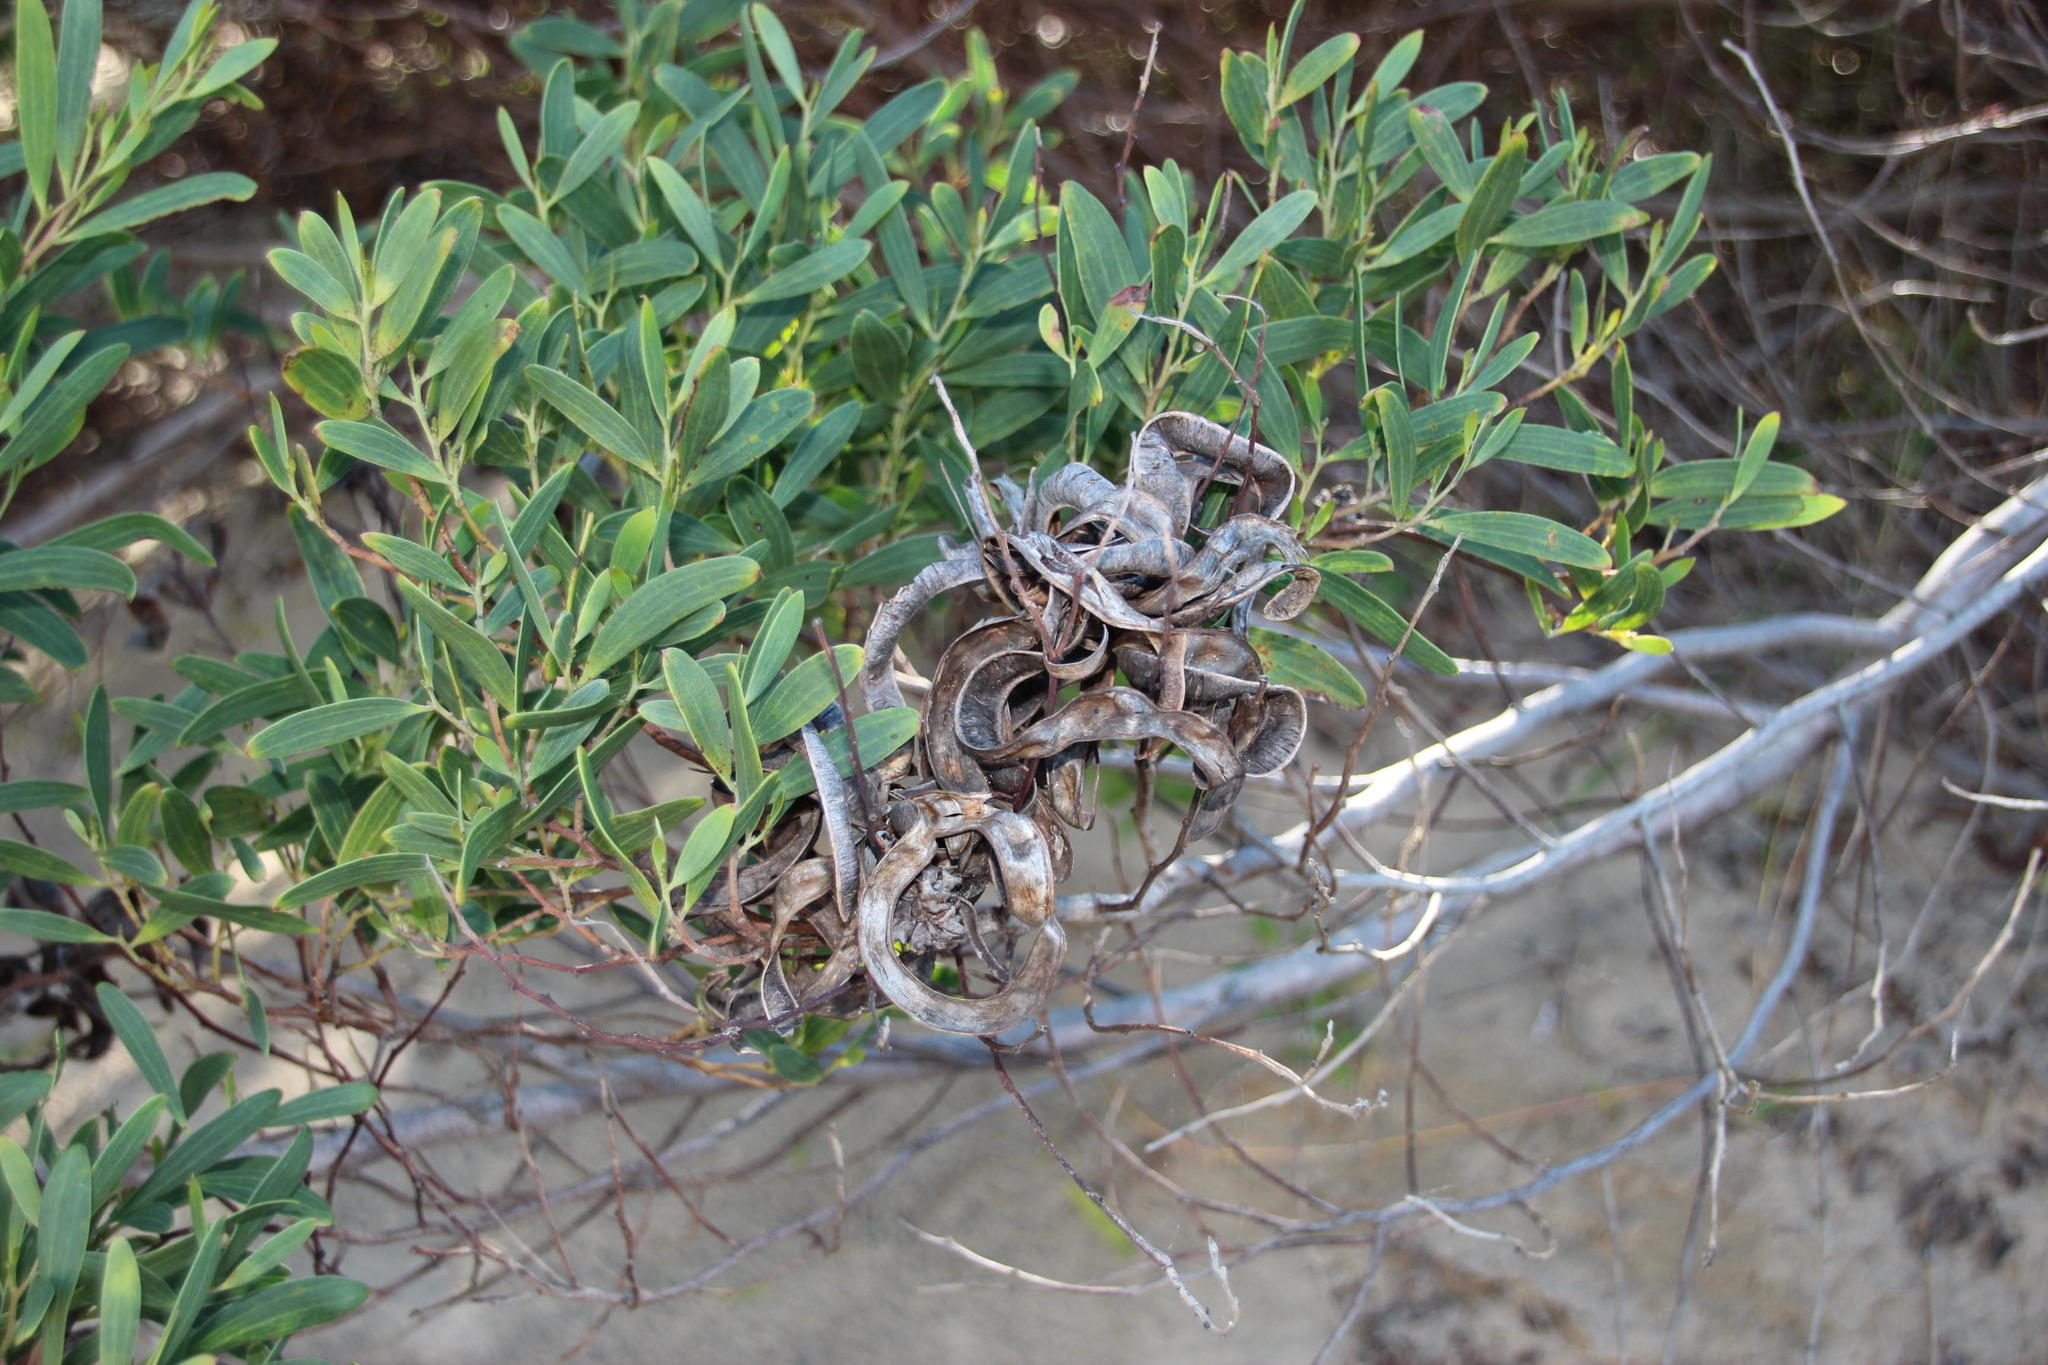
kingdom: Plantae
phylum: Tracheophyta
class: Magnoliopsida
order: Fabales
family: Fabaceae
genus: Acacia
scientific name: Acacia cyclops
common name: Coastal wattle
